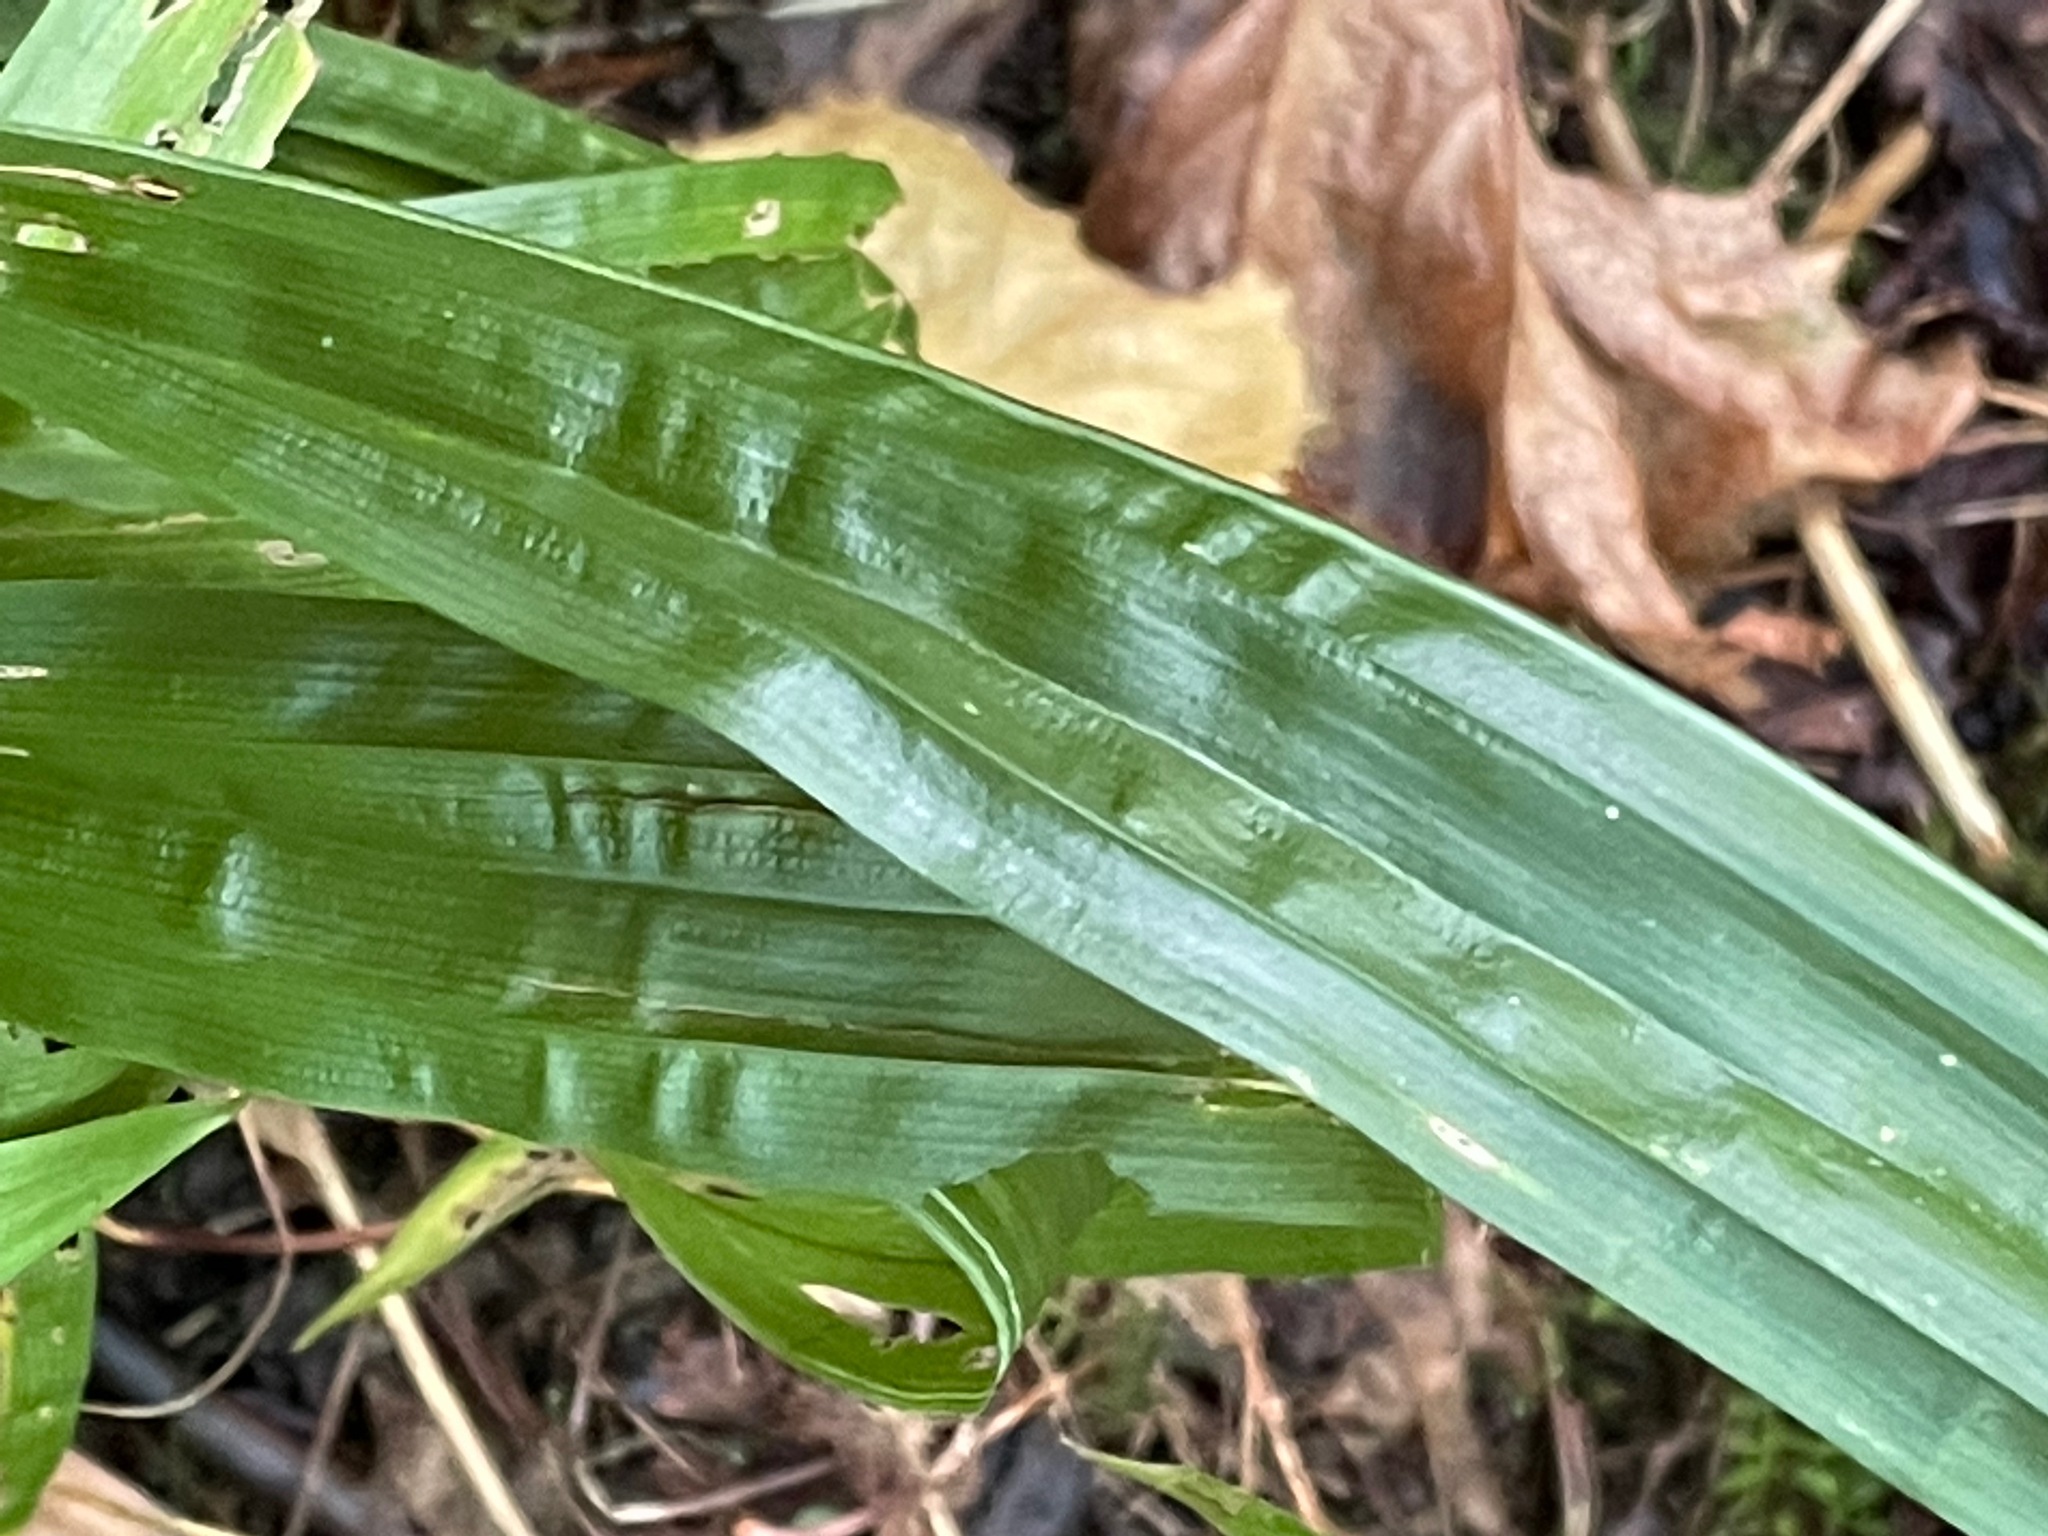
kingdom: Plantae
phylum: Tracheophyta
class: Liliopsida
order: Poales
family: Cyperaceae
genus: Carex
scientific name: Carex plantaginea
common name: Plantain-leaved sedge
